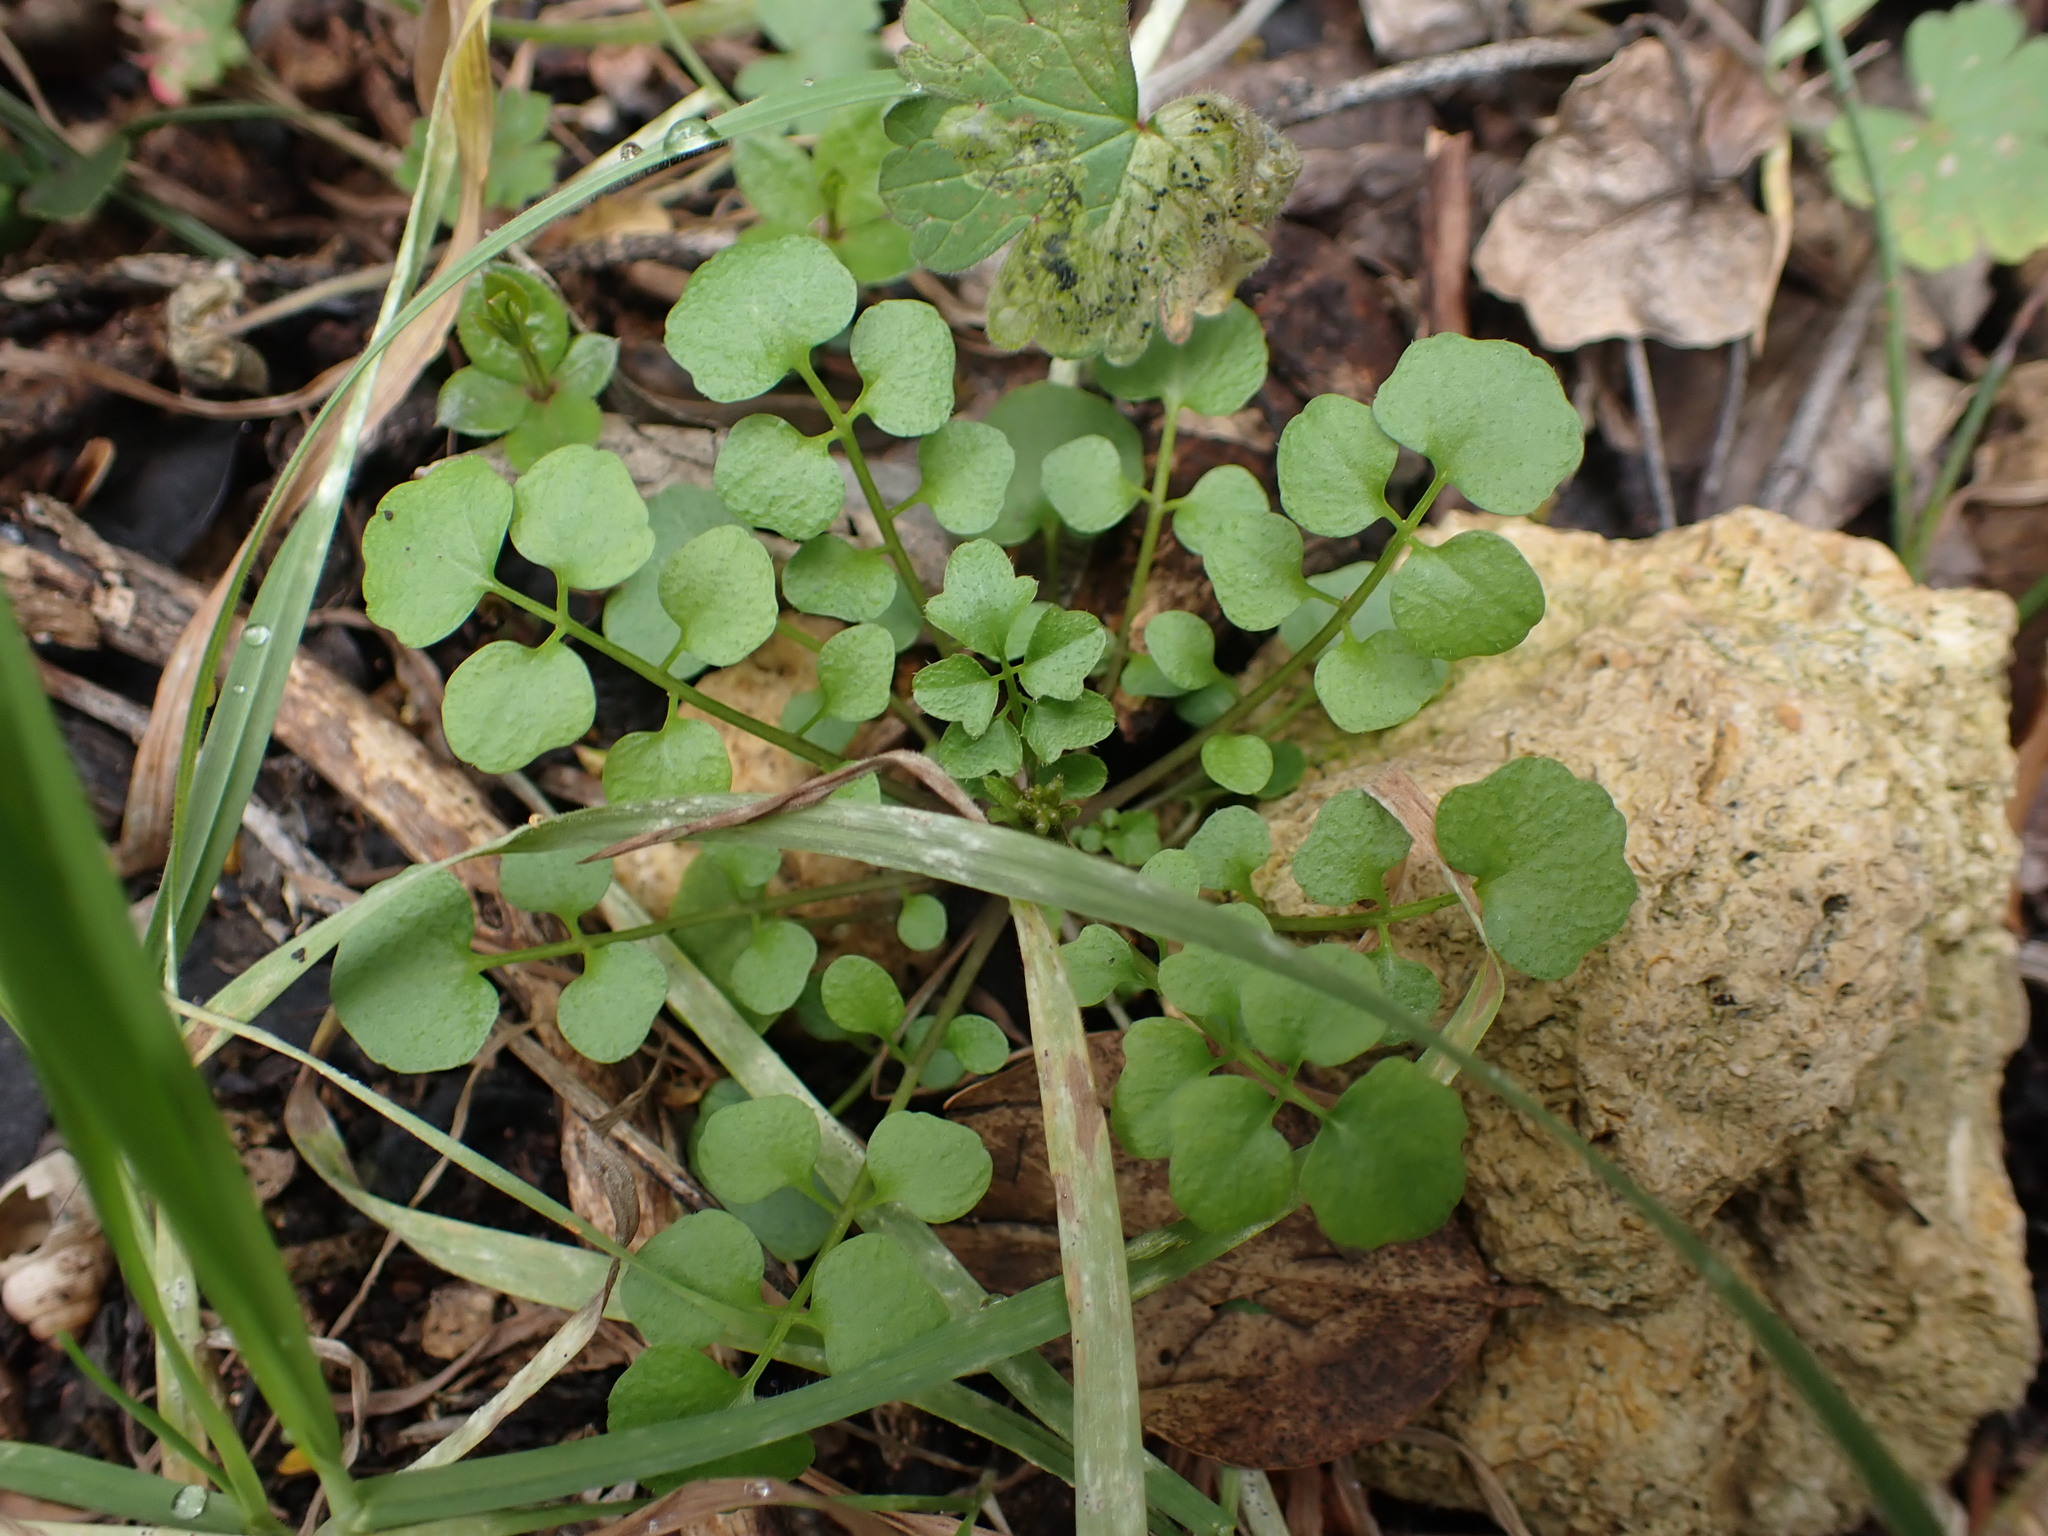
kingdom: Plantae
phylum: Tracheophyta
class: Magnoliopsida
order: Brassicales
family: Brassicaceae
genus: Cardamine
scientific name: Cardamine hirsuta
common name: Hairy bittercress
